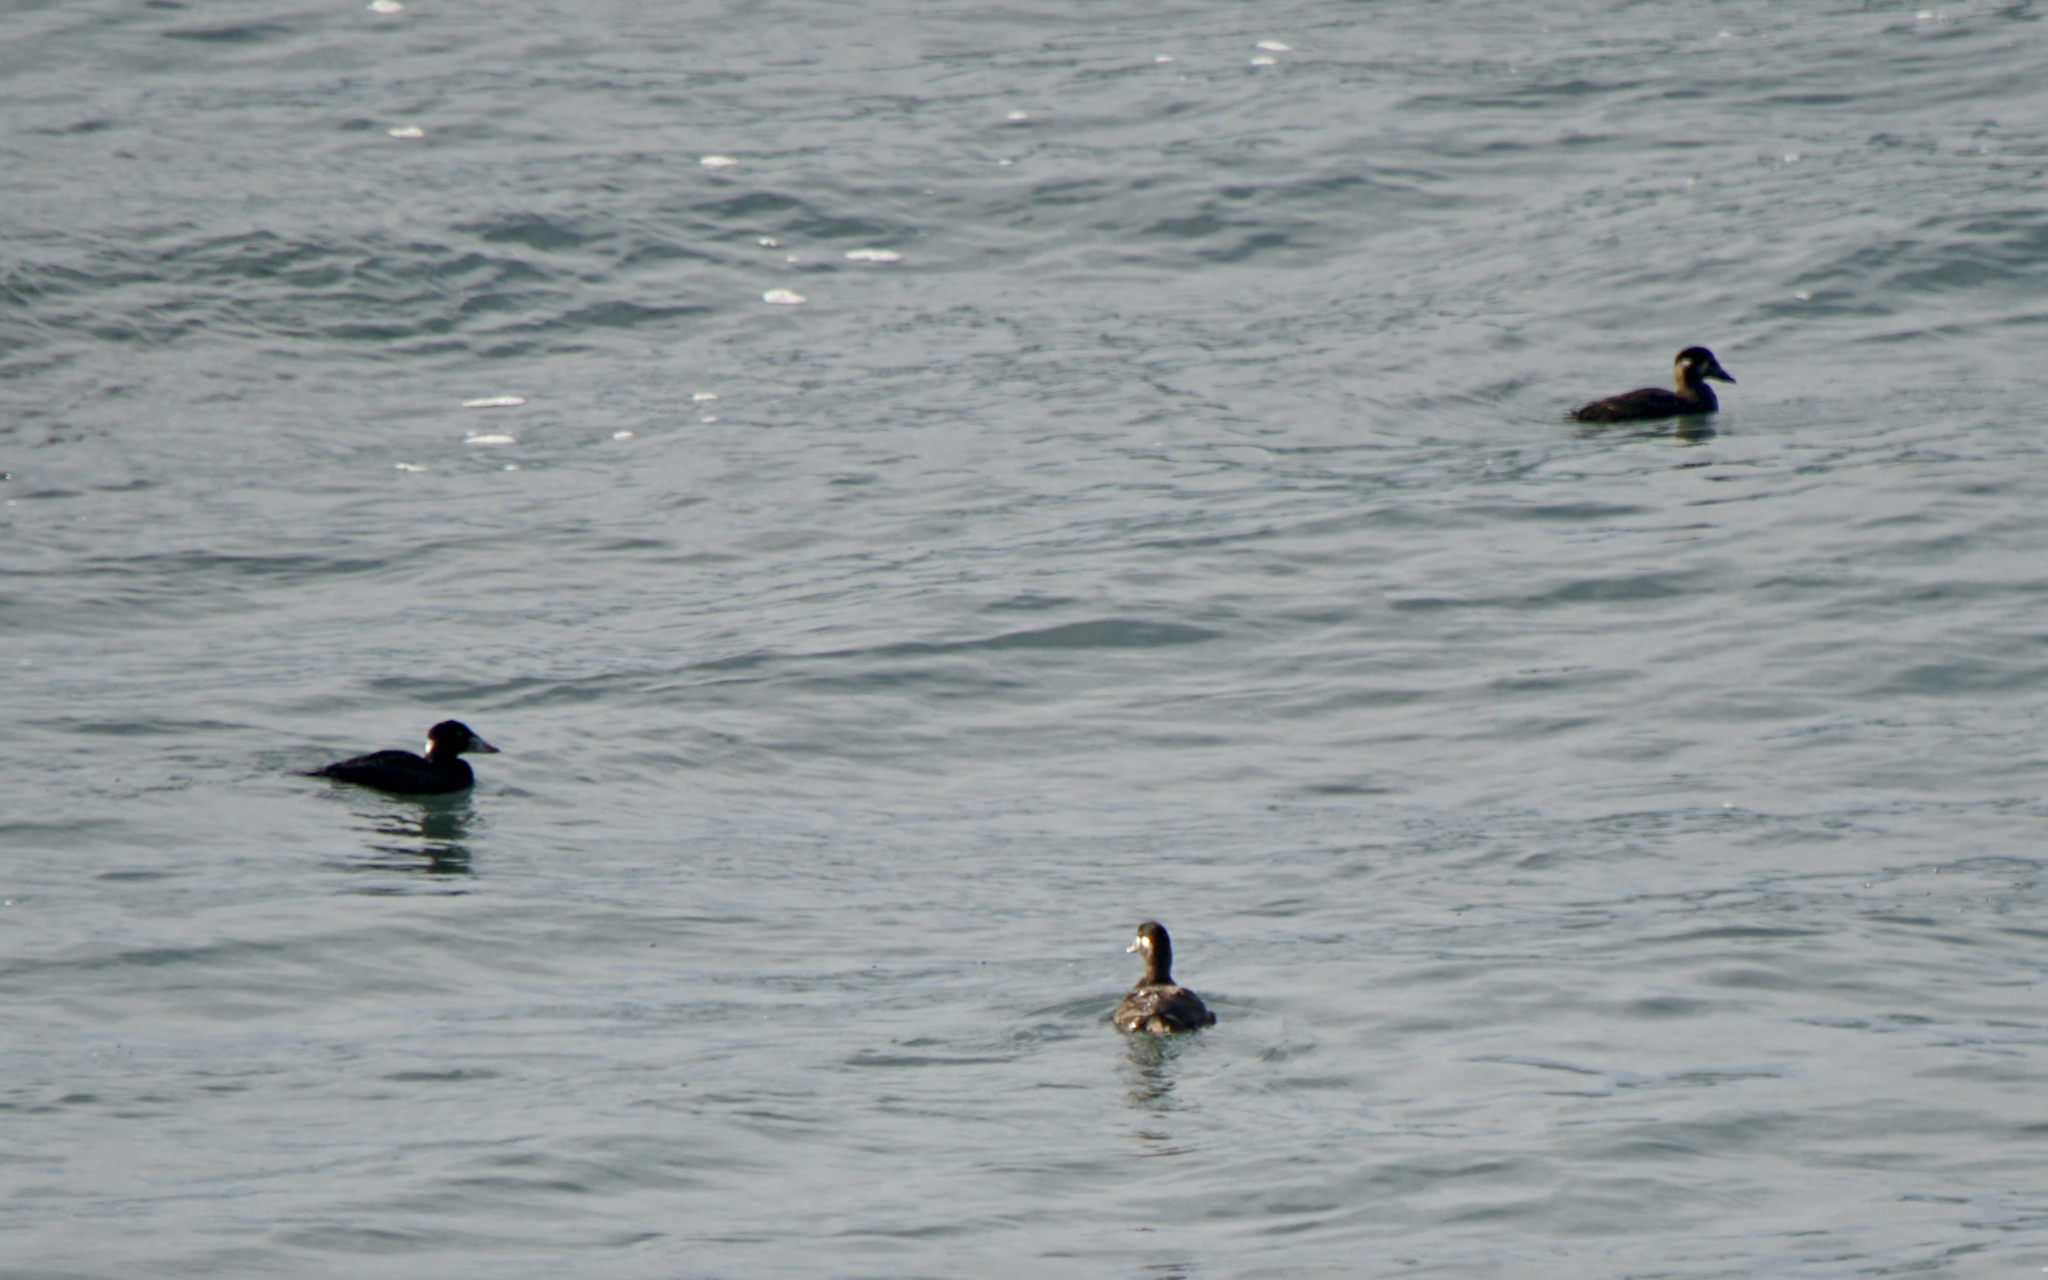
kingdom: Animalia
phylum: Chordata
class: Aves
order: Anseriformes
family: Anatidae
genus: Melanitta
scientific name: Melanitta perspicillata
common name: Surf scoter
